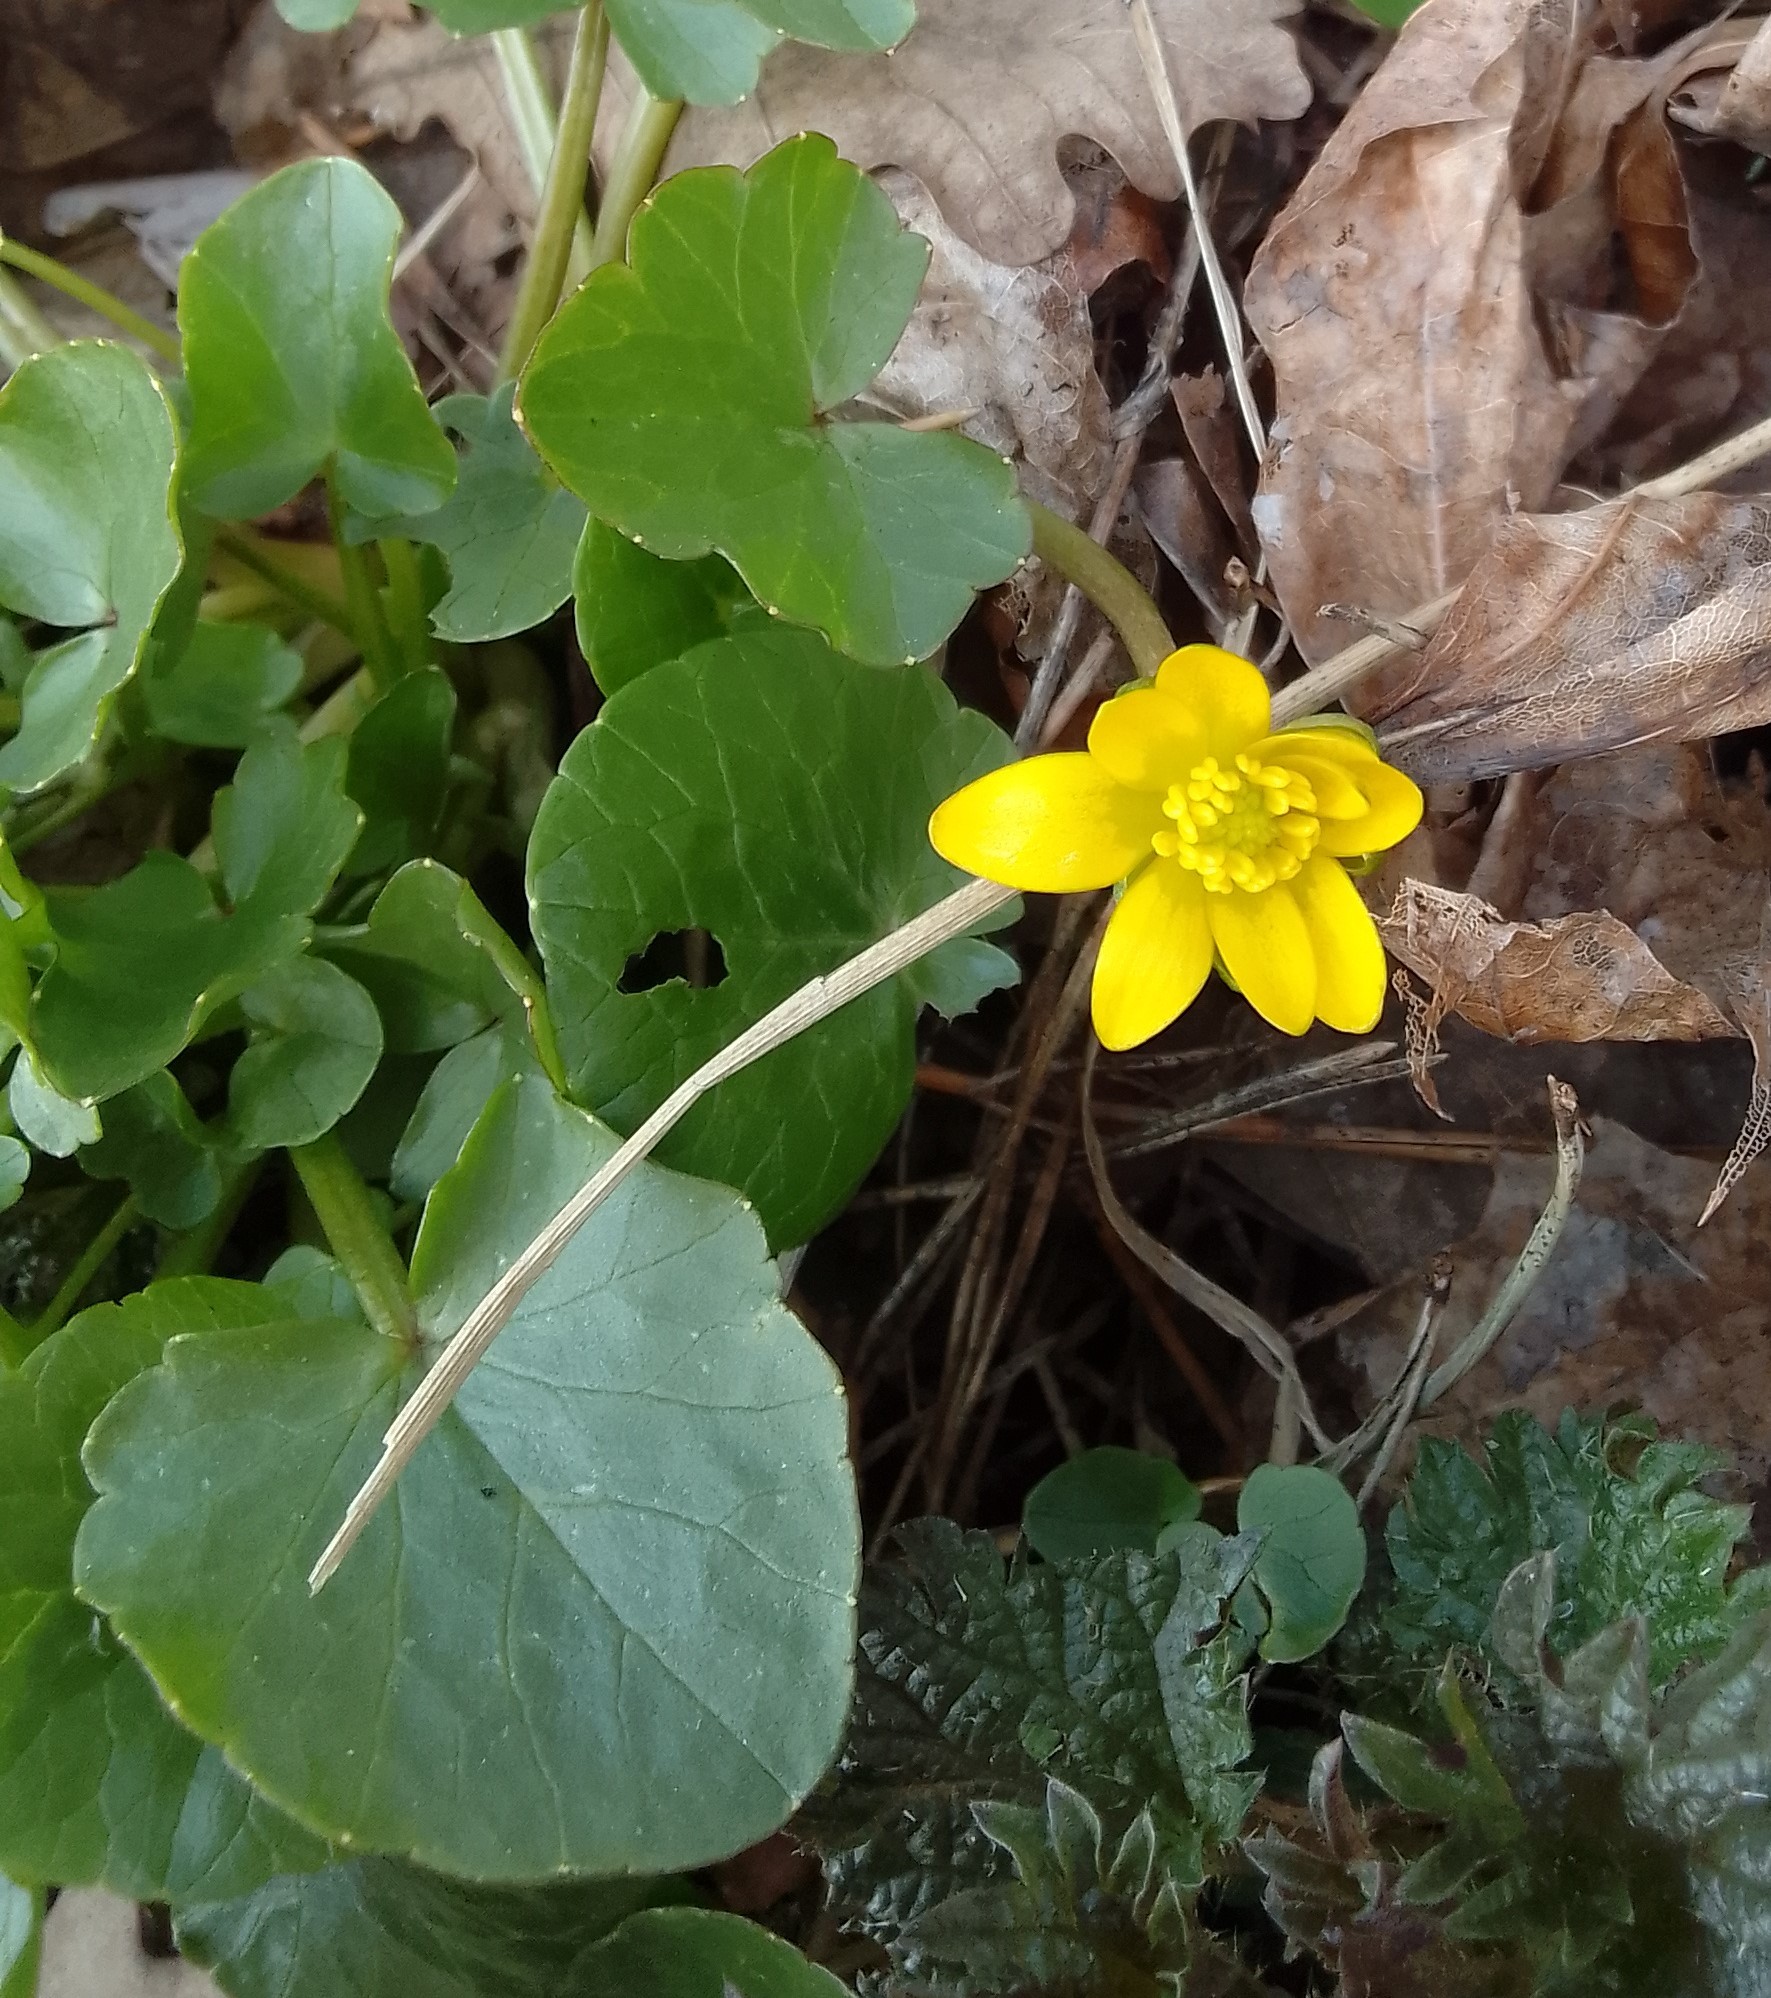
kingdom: Plantae
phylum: Tracheophyta
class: Magnoliopsida
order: Ranunculales
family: Ranunculaceae
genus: Ficaria
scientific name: Ficaria verna
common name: Lesser celandine
